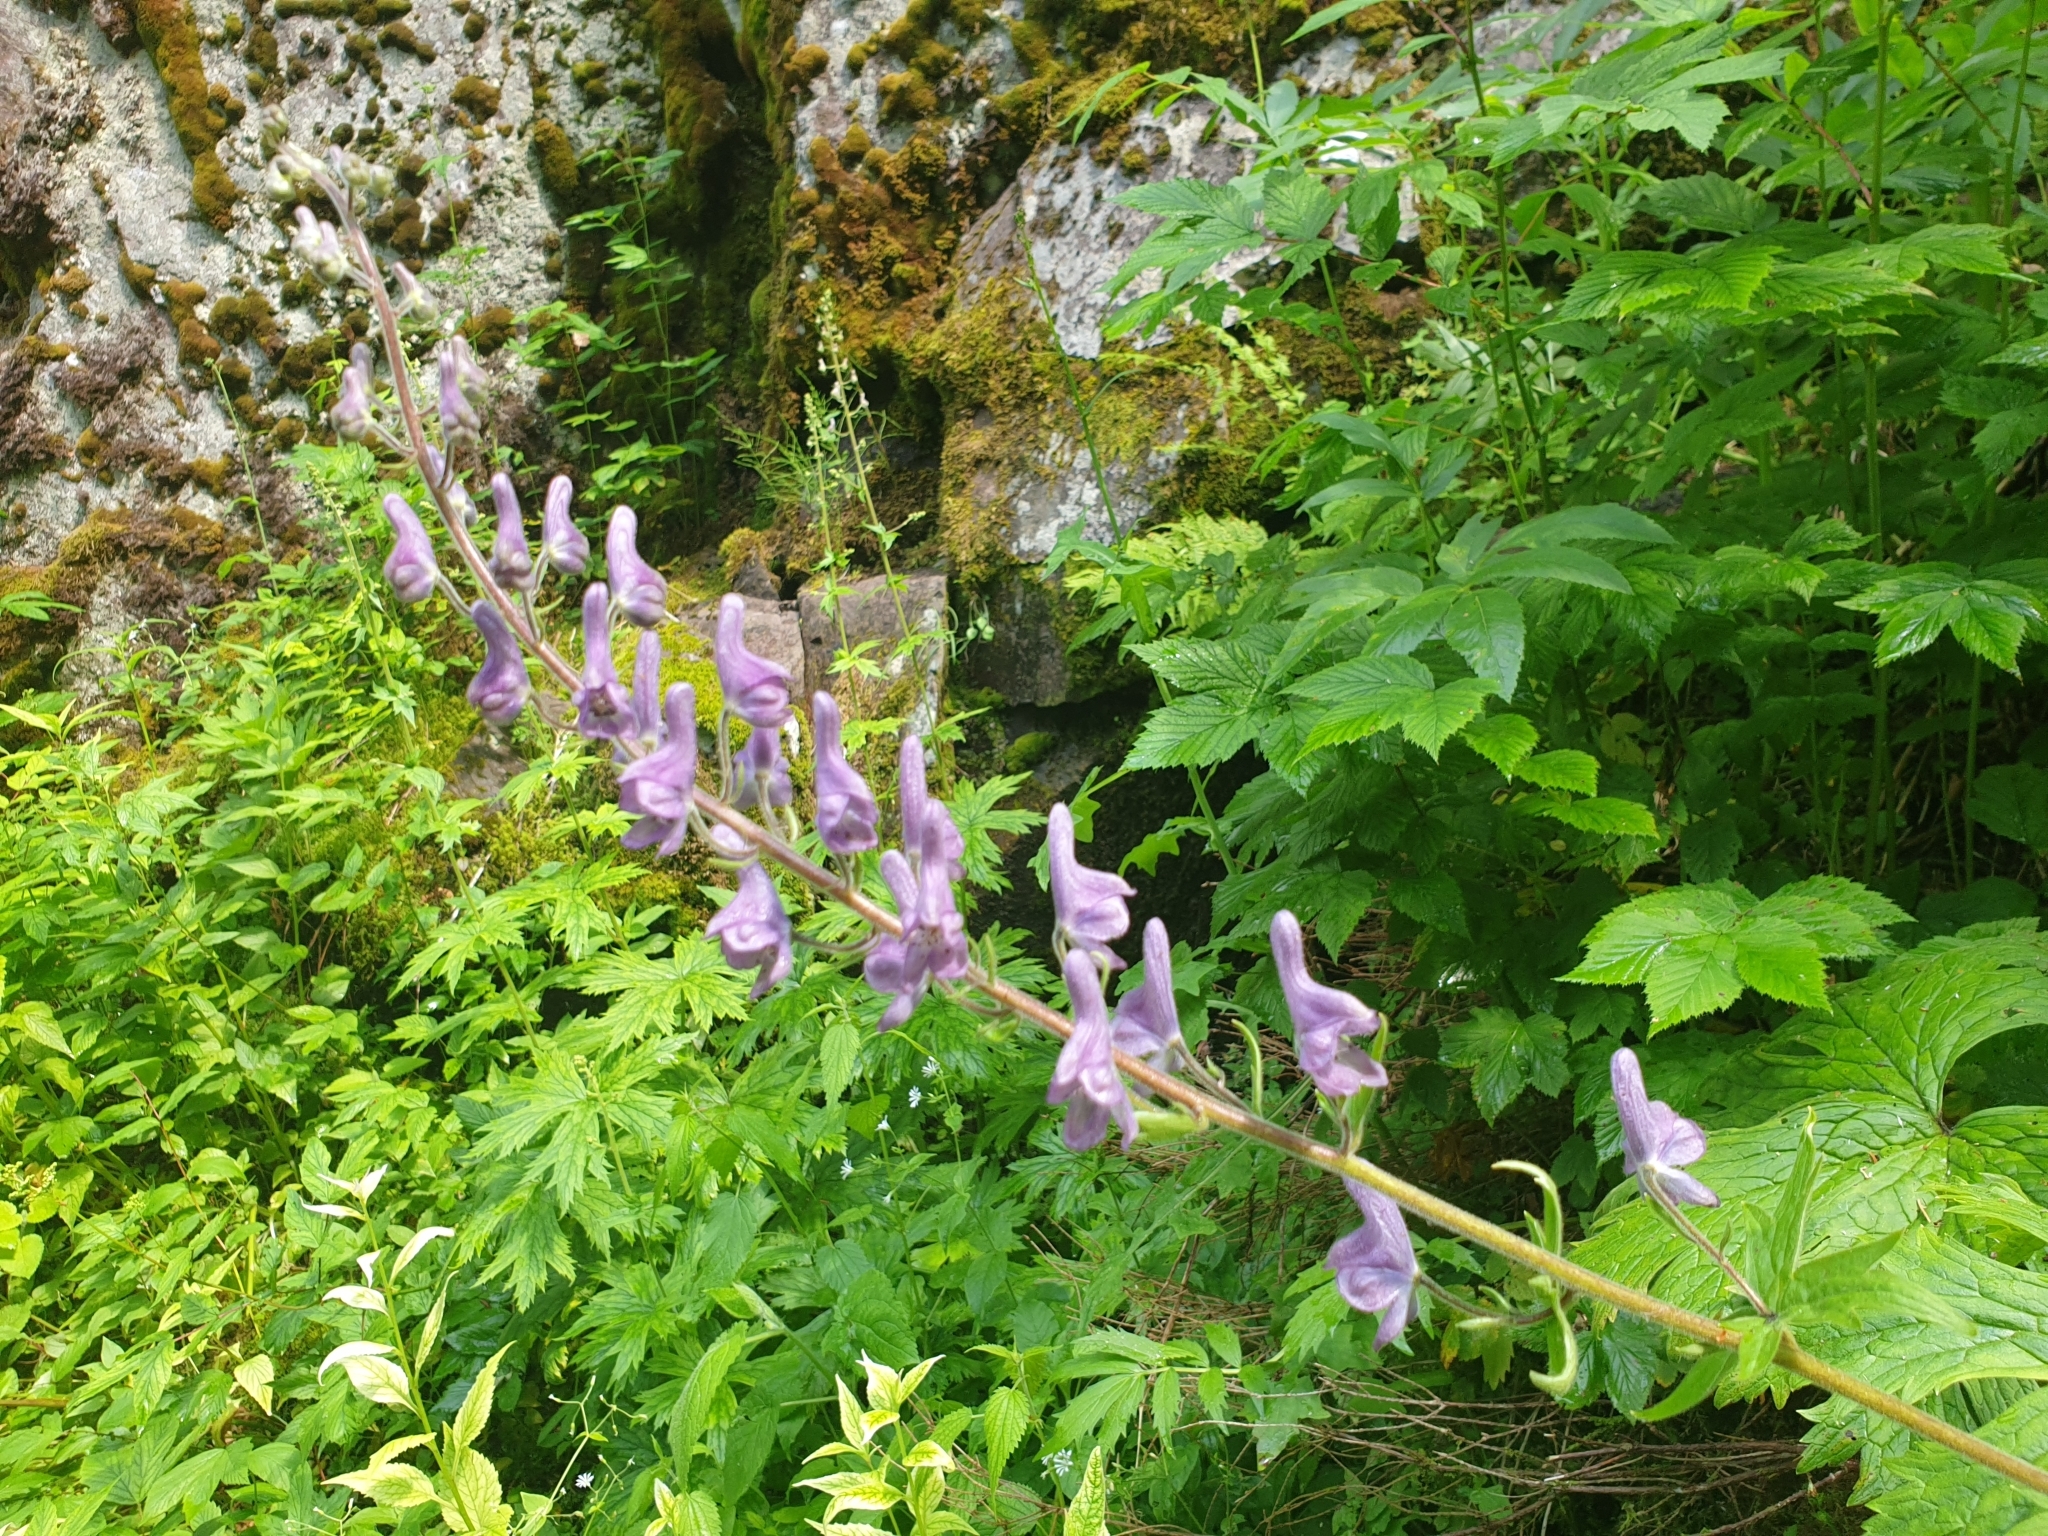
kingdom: Plantae
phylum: Tracheophyta
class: Magnoliopsida
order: Ranunculales
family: Ranunculaceae
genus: Aconitum
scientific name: Aconitum septentrionale
